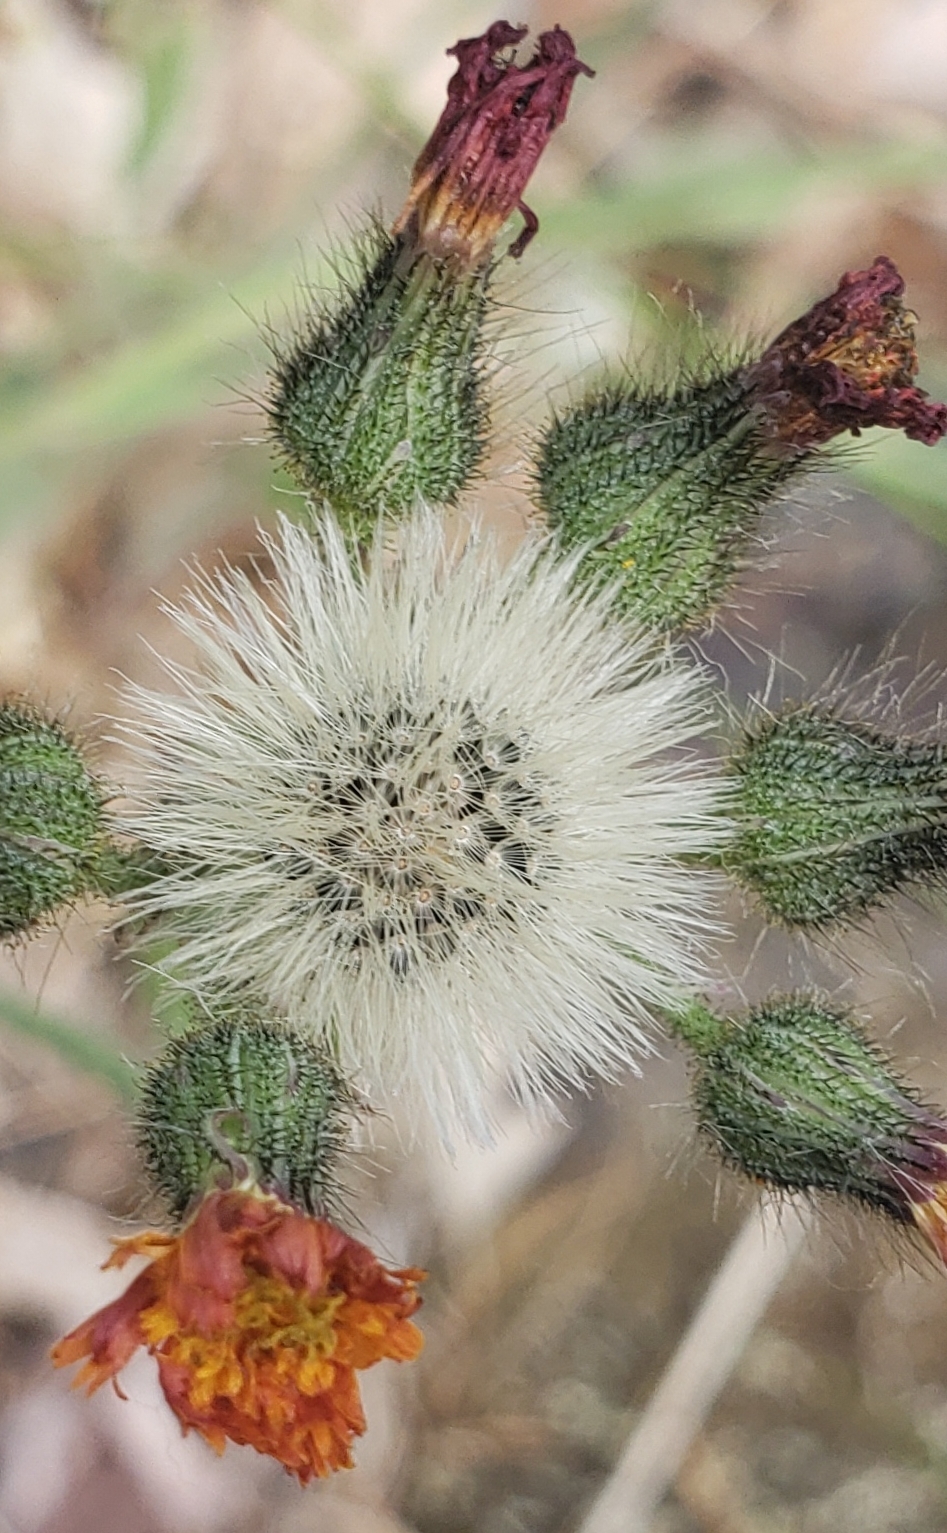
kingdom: Plantae
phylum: Tracheophyta
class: Magnoliopsida
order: Asterales
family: Asteraceae
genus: Pilosella
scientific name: Pilosella aurantiaca
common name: Fox-and-cubs
